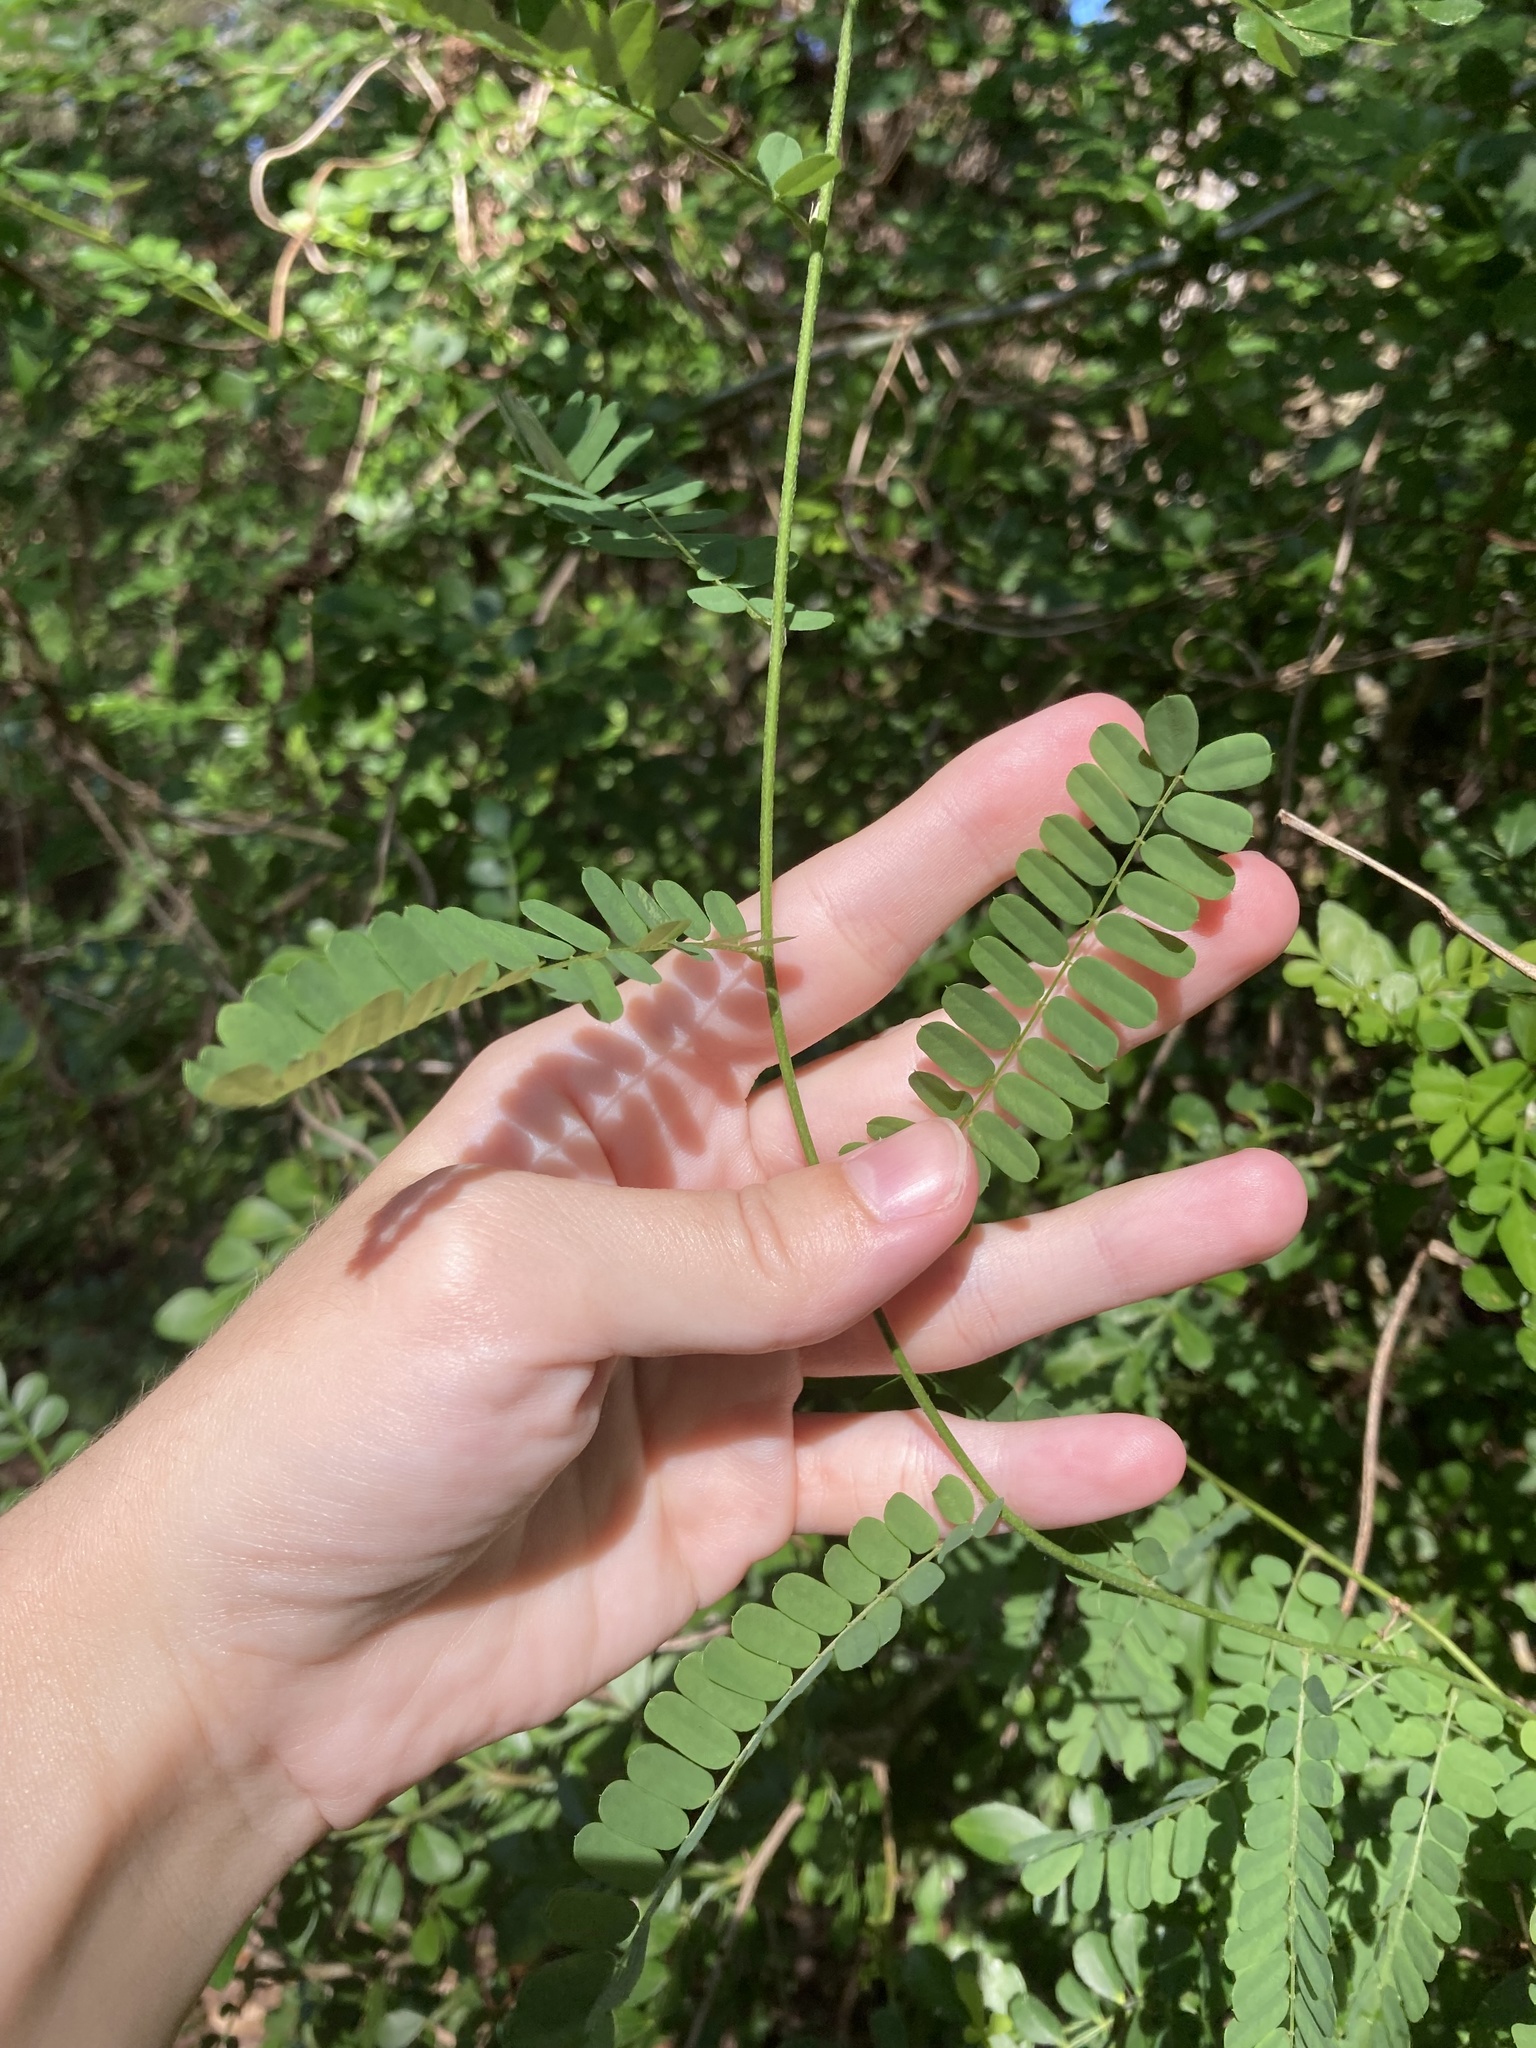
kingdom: Plantae
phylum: Tracheophyta
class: Magnoliopsida
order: Fabales
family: Fabaceae
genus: Abrus
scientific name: Abrus precatorius
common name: Rosarypea
